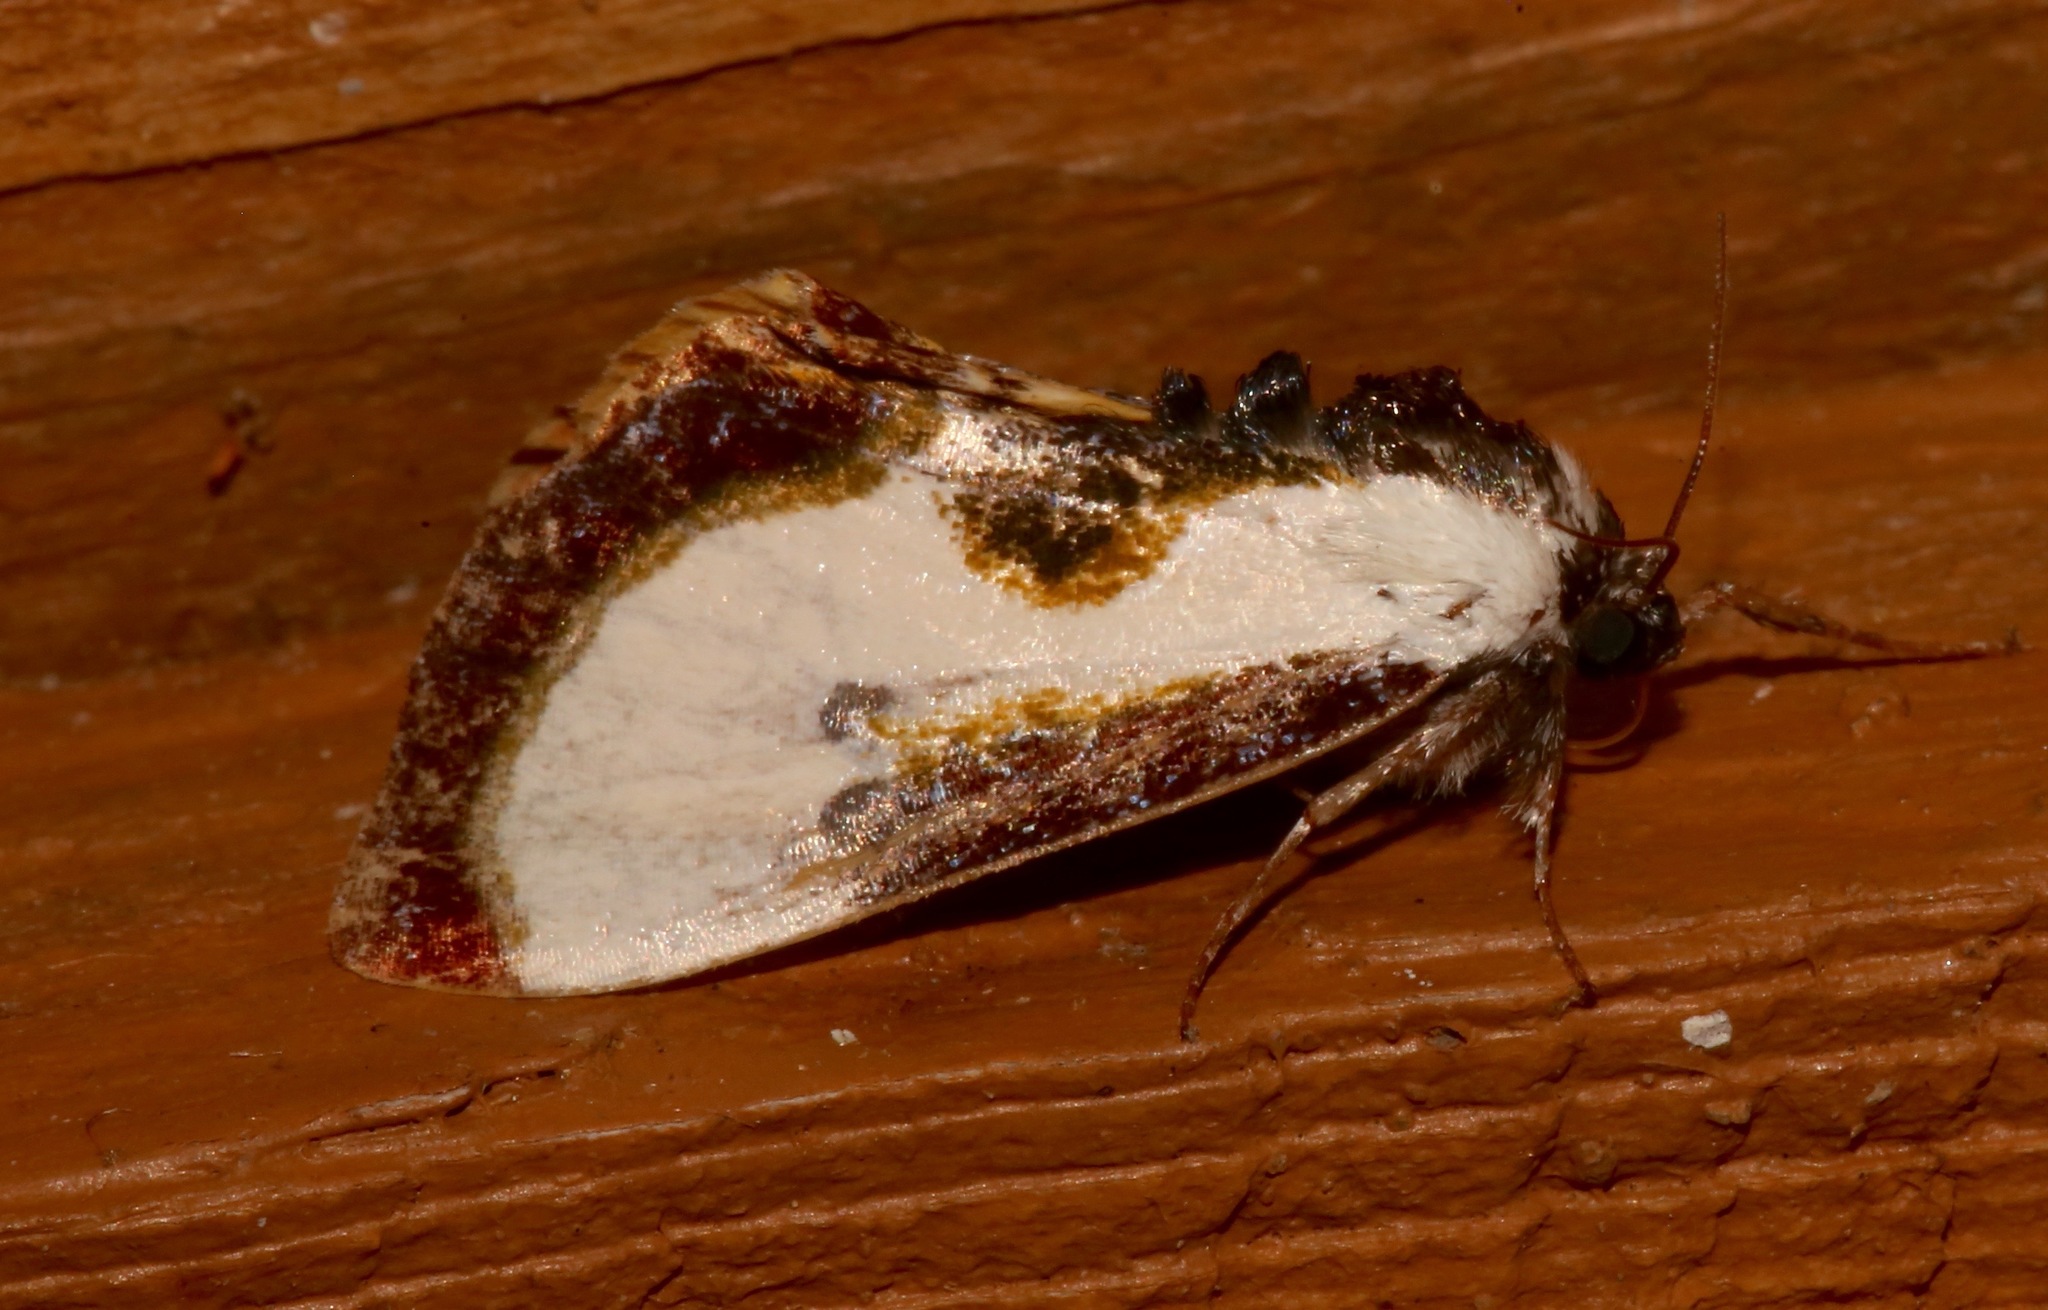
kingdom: Animalia
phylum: Arthropoda
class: Insecta
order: Lepidoptera
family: Noctuidae
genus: Eudryas
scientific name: Eudryas grata
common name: Beautiful wood-nymph
